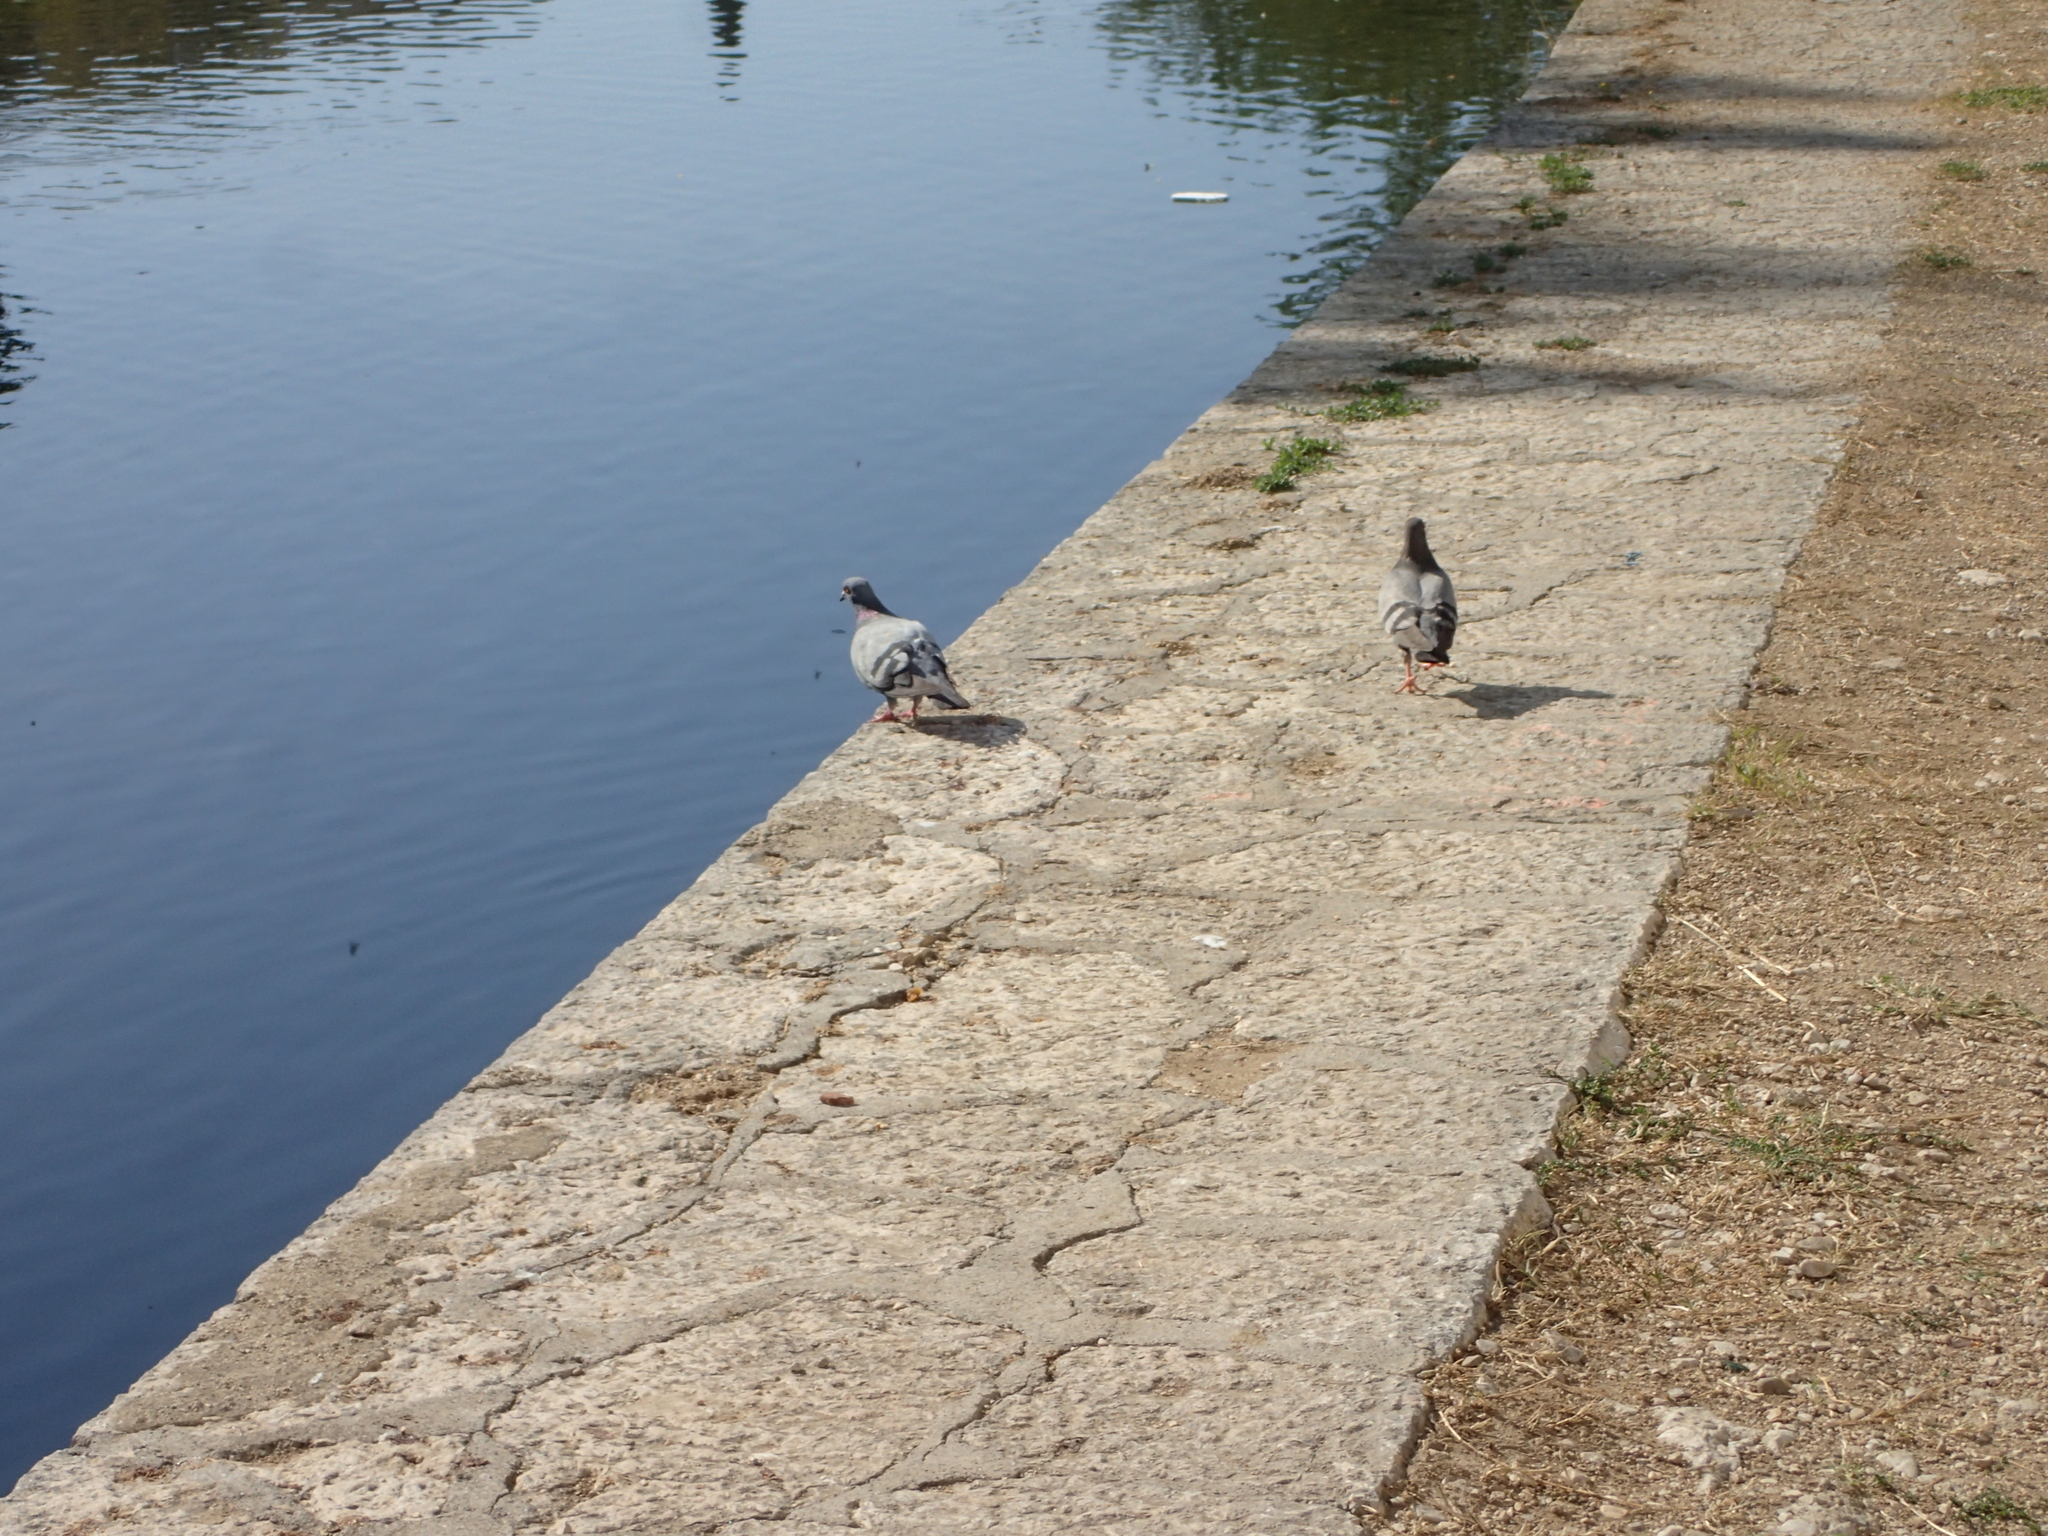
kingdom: Animalia
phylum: Chordata
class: Aves
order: Columbiformes
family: Columbidae
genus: Columba
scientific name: Columba livia
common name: Rock pigeon
